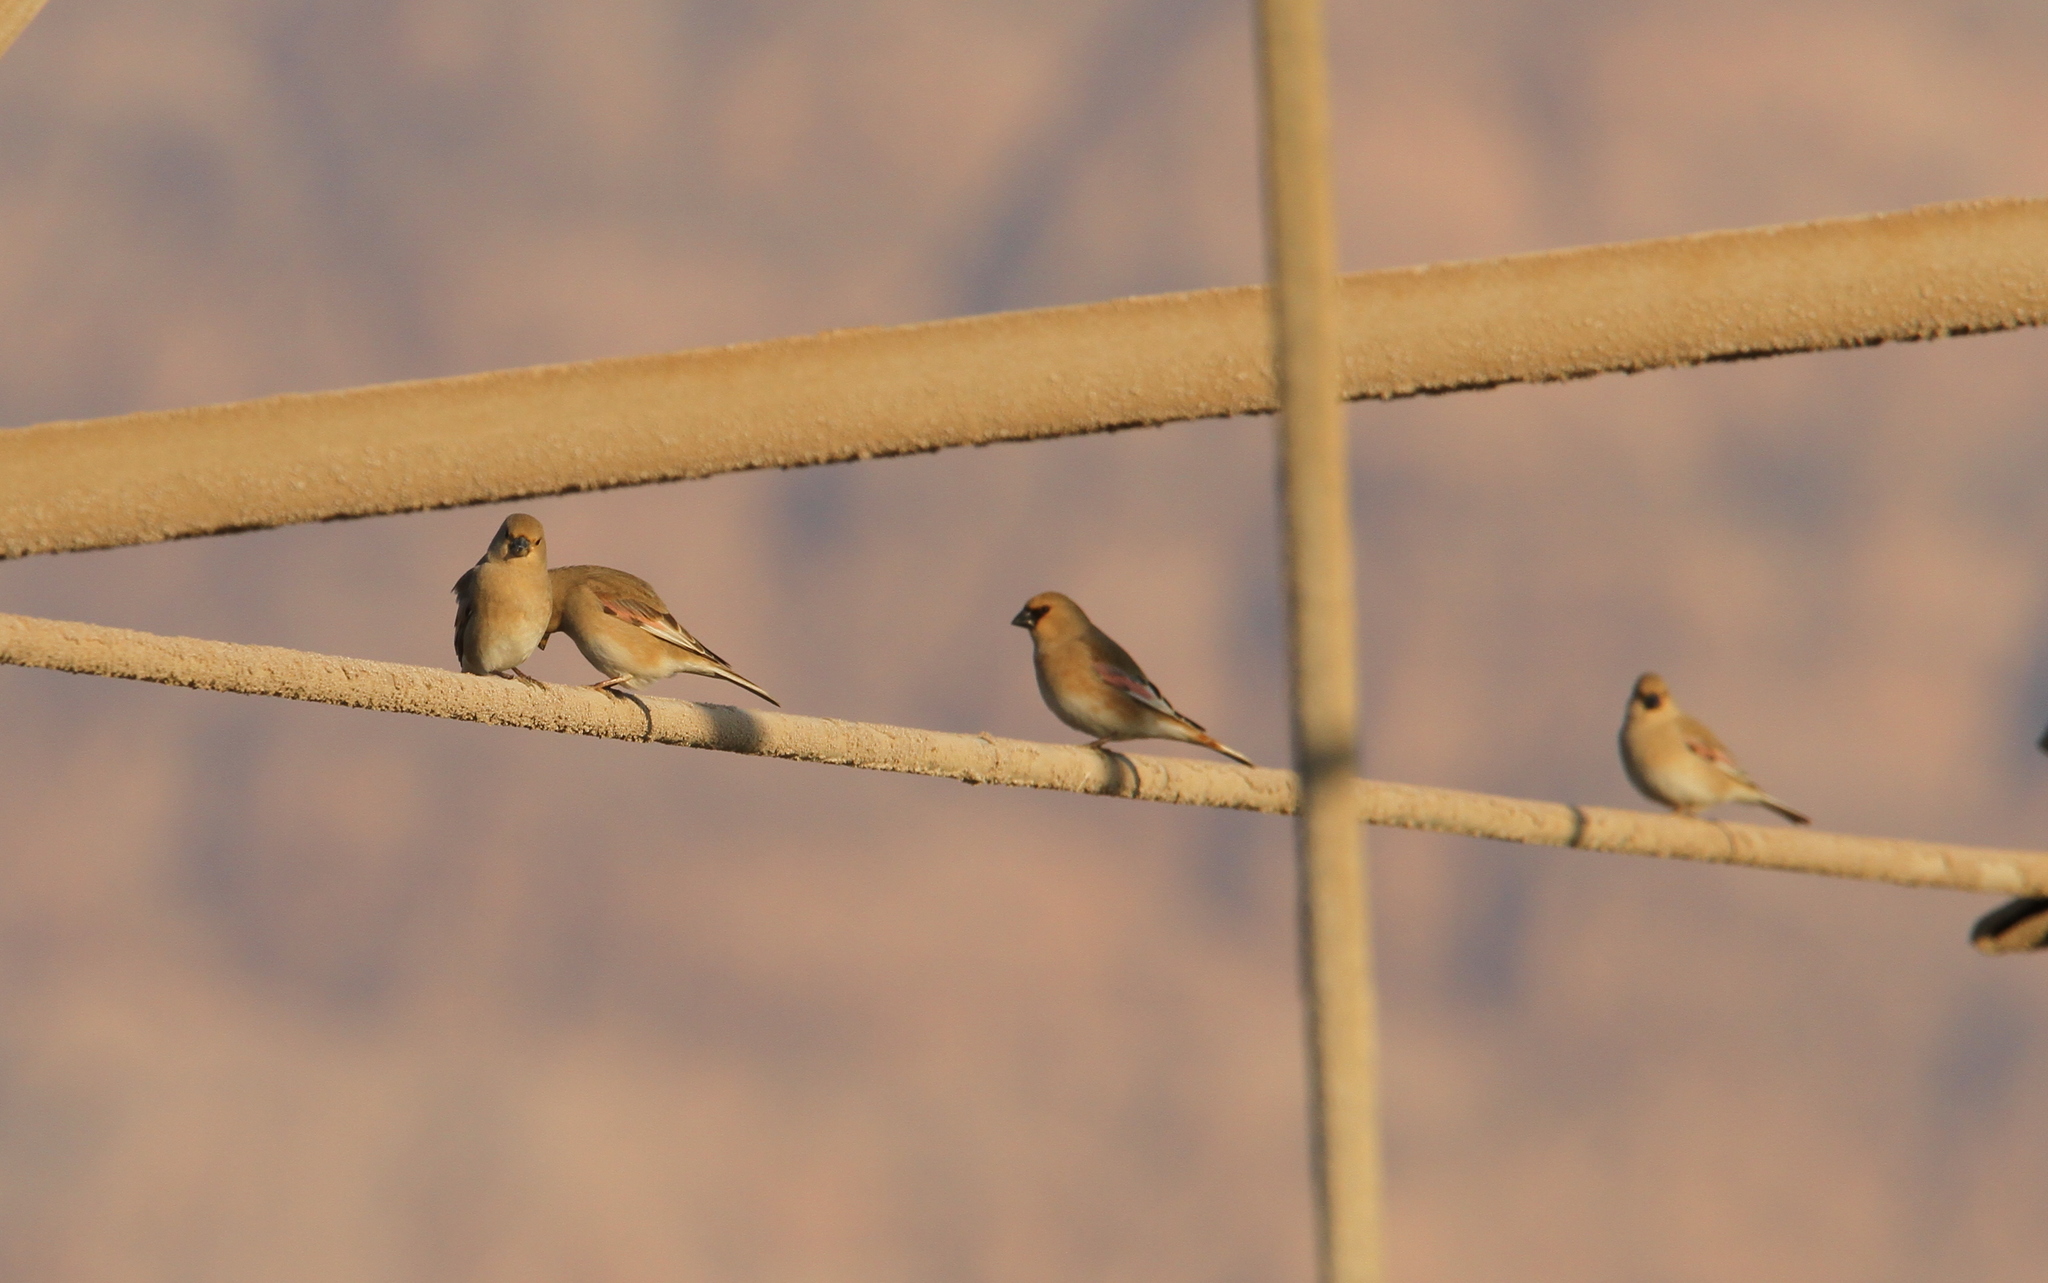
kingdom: Animalia
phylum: Chordata
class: Aves
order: Passeriformes
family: Fringillidae
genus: Rhodospiza
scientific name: Rhodospiza obsoleta
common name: Desert finch
